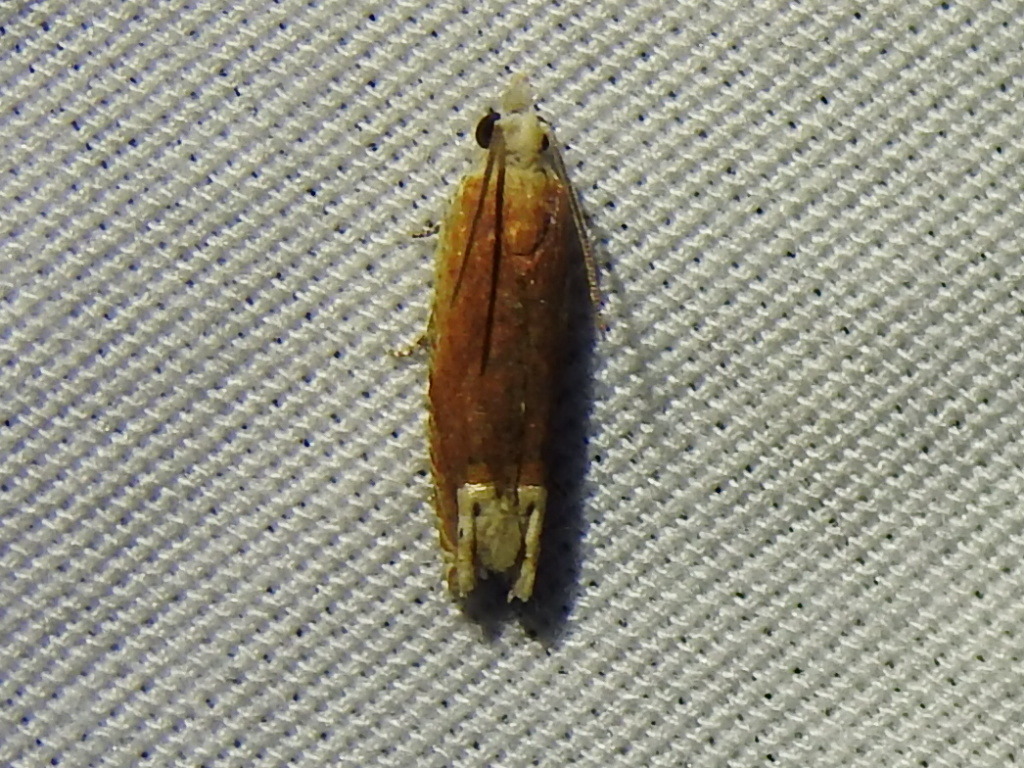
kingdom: Animalia
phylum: Arthropoda
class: Insecta
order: Lepidoptera
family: Tortricidae
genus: Eucosma
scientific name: Eucosma raracana
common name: Reddish eucosma moth
